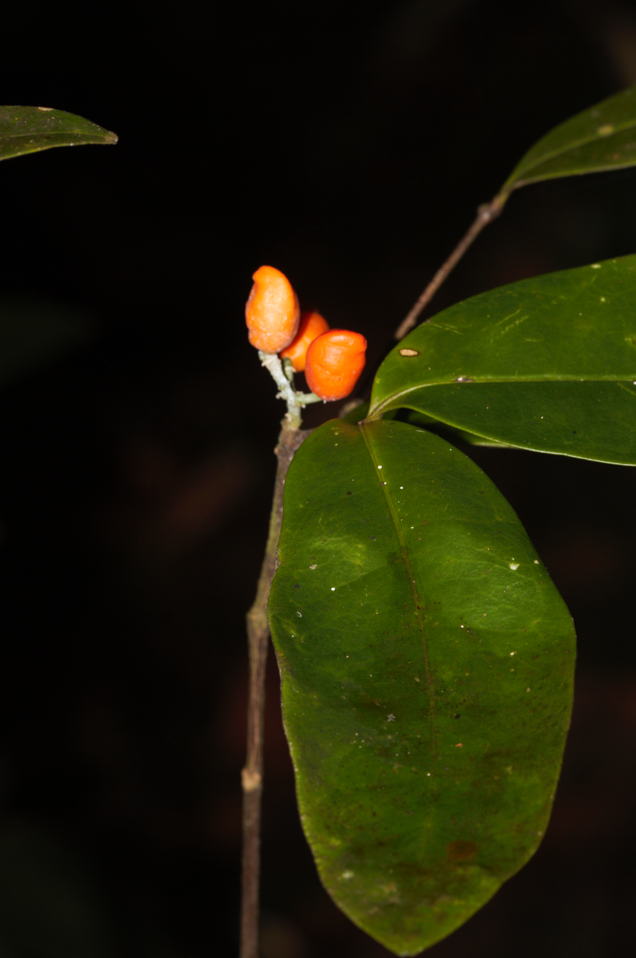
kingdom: Plantae
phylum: Tracheophyta
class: Magnoliopsida
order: Sapindales
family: Simaroubaceae
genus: Simaba
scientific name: Simaba guianensis
